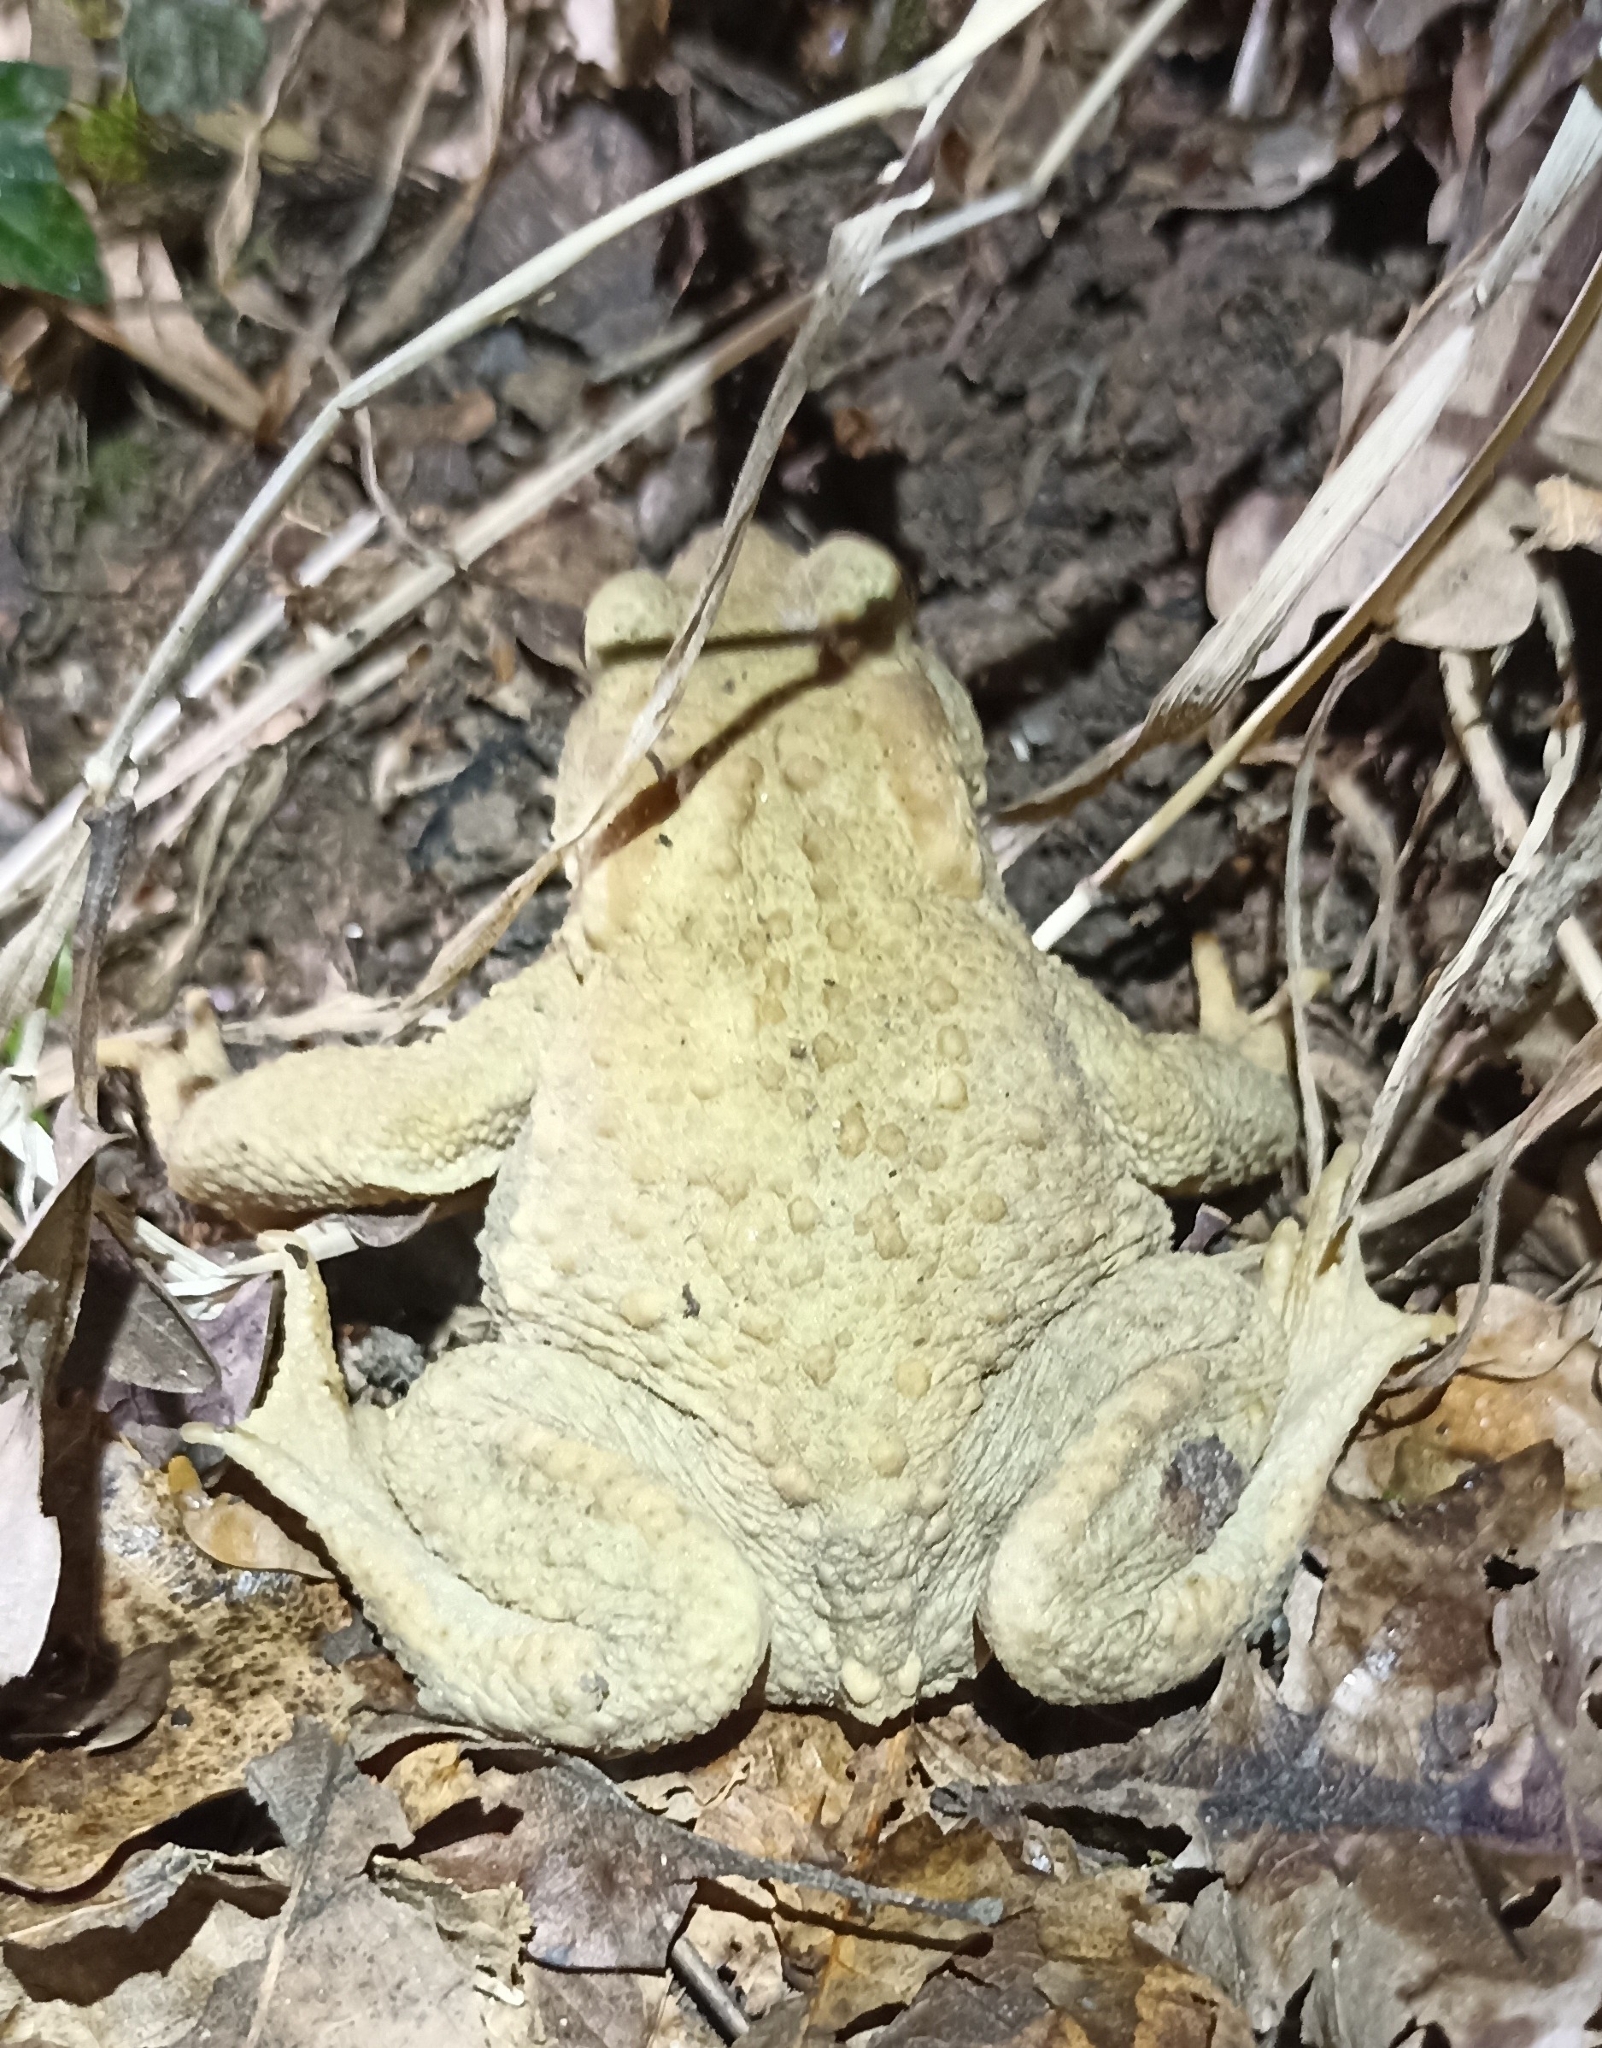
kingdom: Animalia
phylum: Chordata
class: Amphibia
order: Anura
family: Bufonidae
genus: Bufo
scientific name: Bufo spinosus
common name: Western common toad
